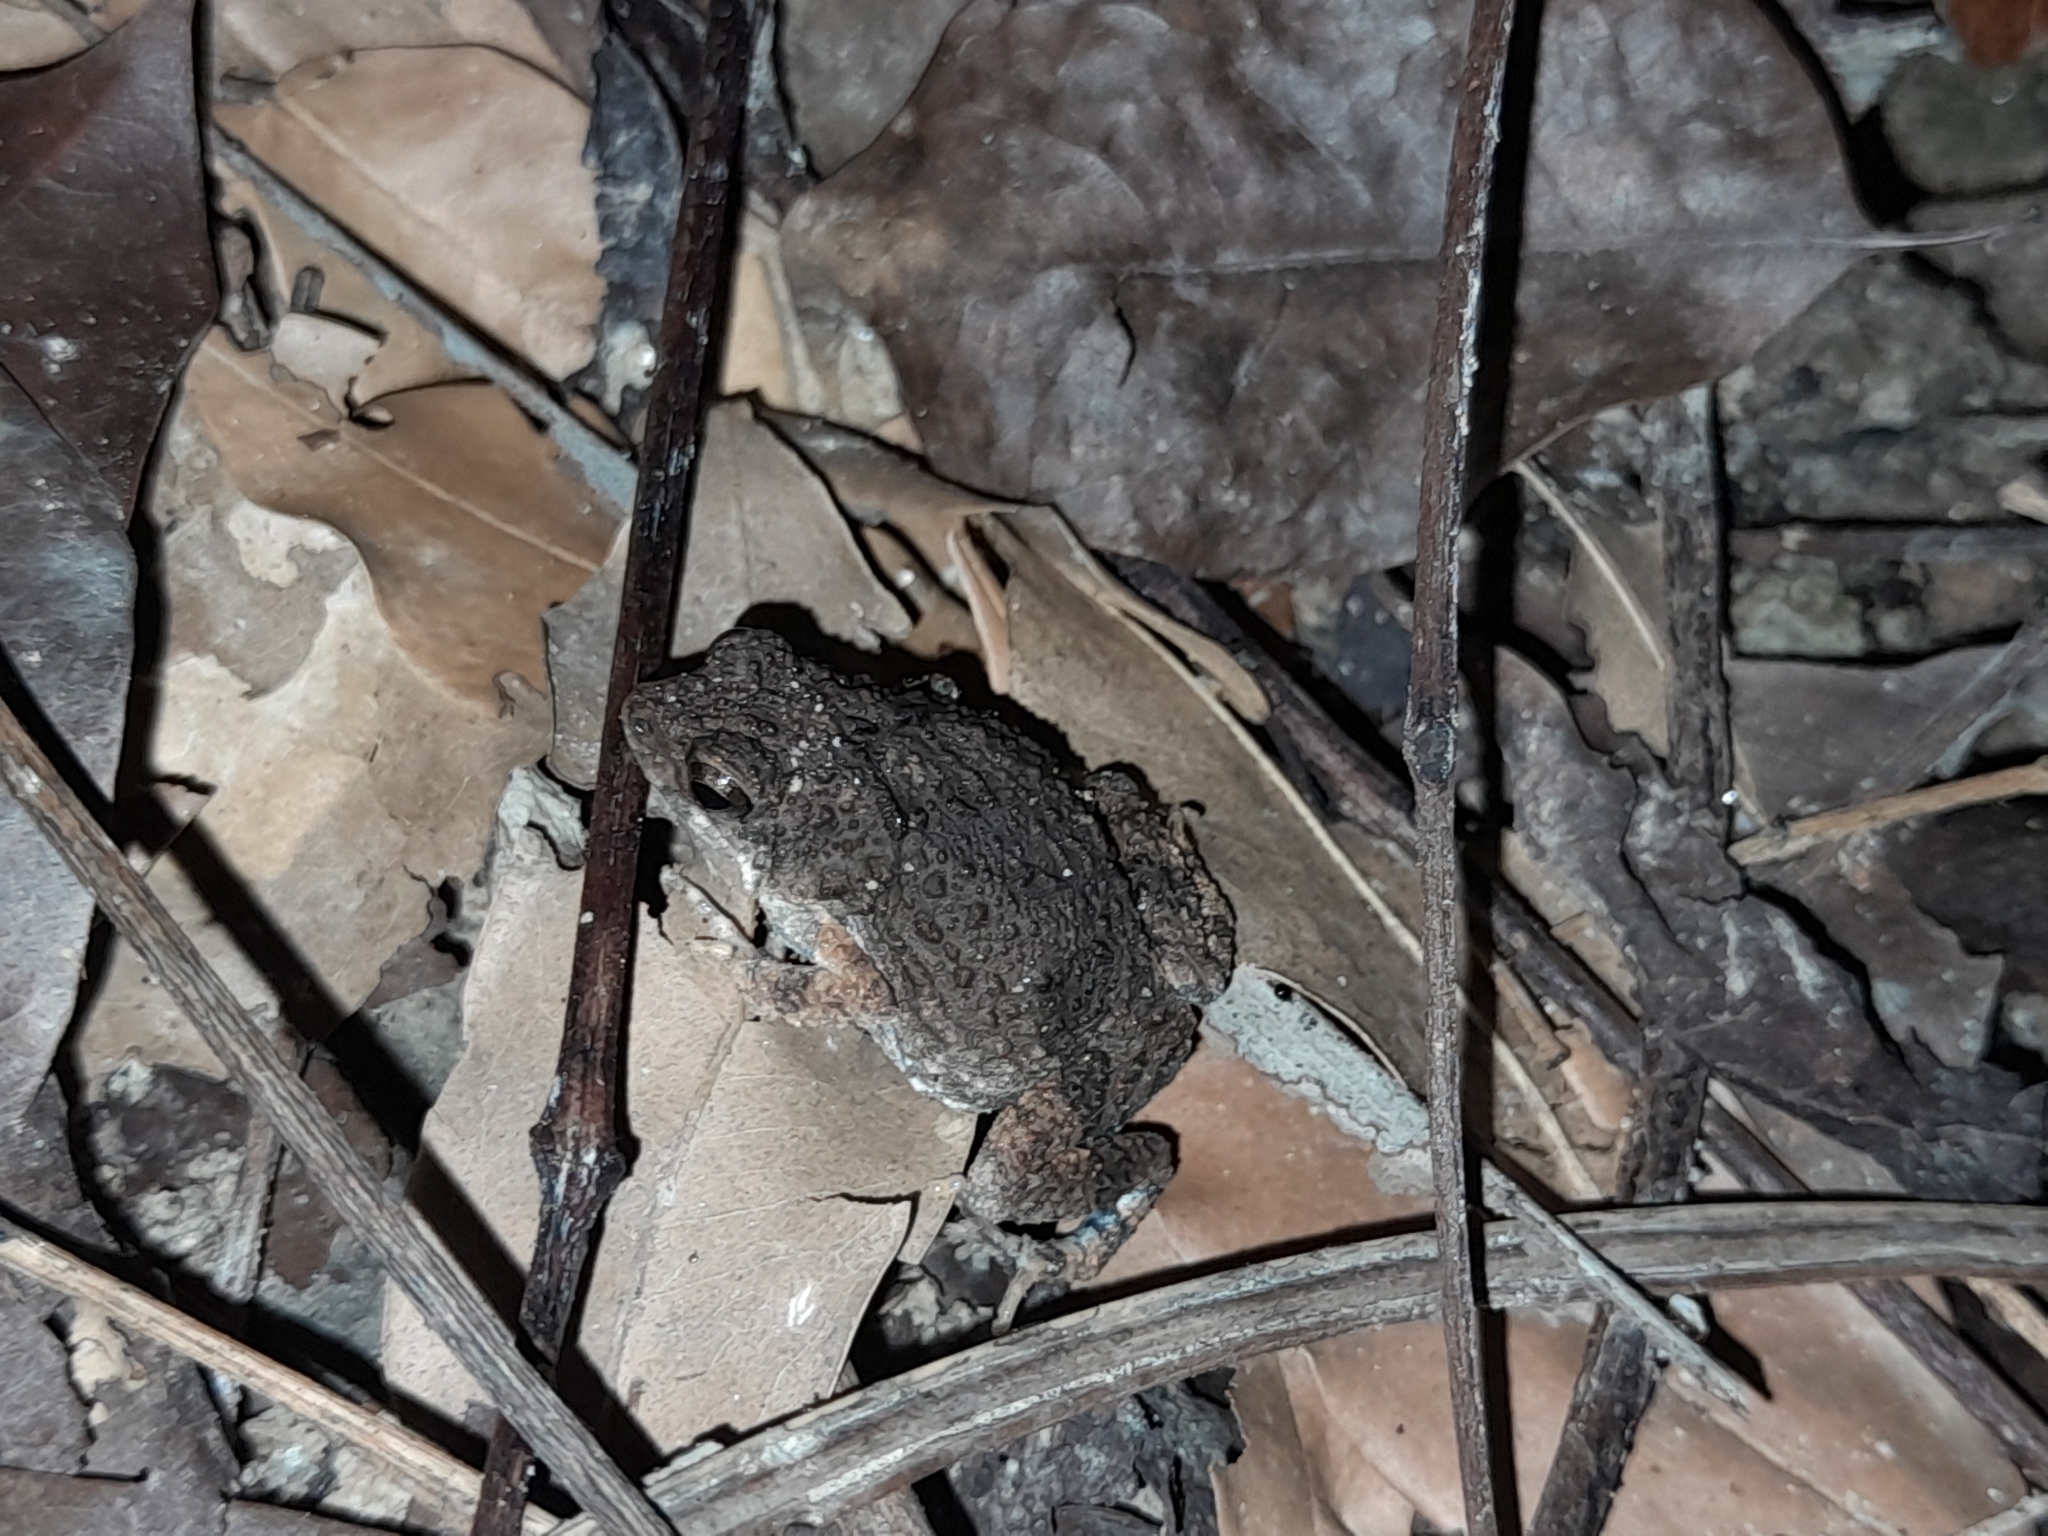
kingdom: Animalia
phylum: Chordata
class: Amphibia
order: Anura
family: Leptodactylidae
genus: Engystomops
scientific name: Engystomops pustulosus
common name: Tungara frog
